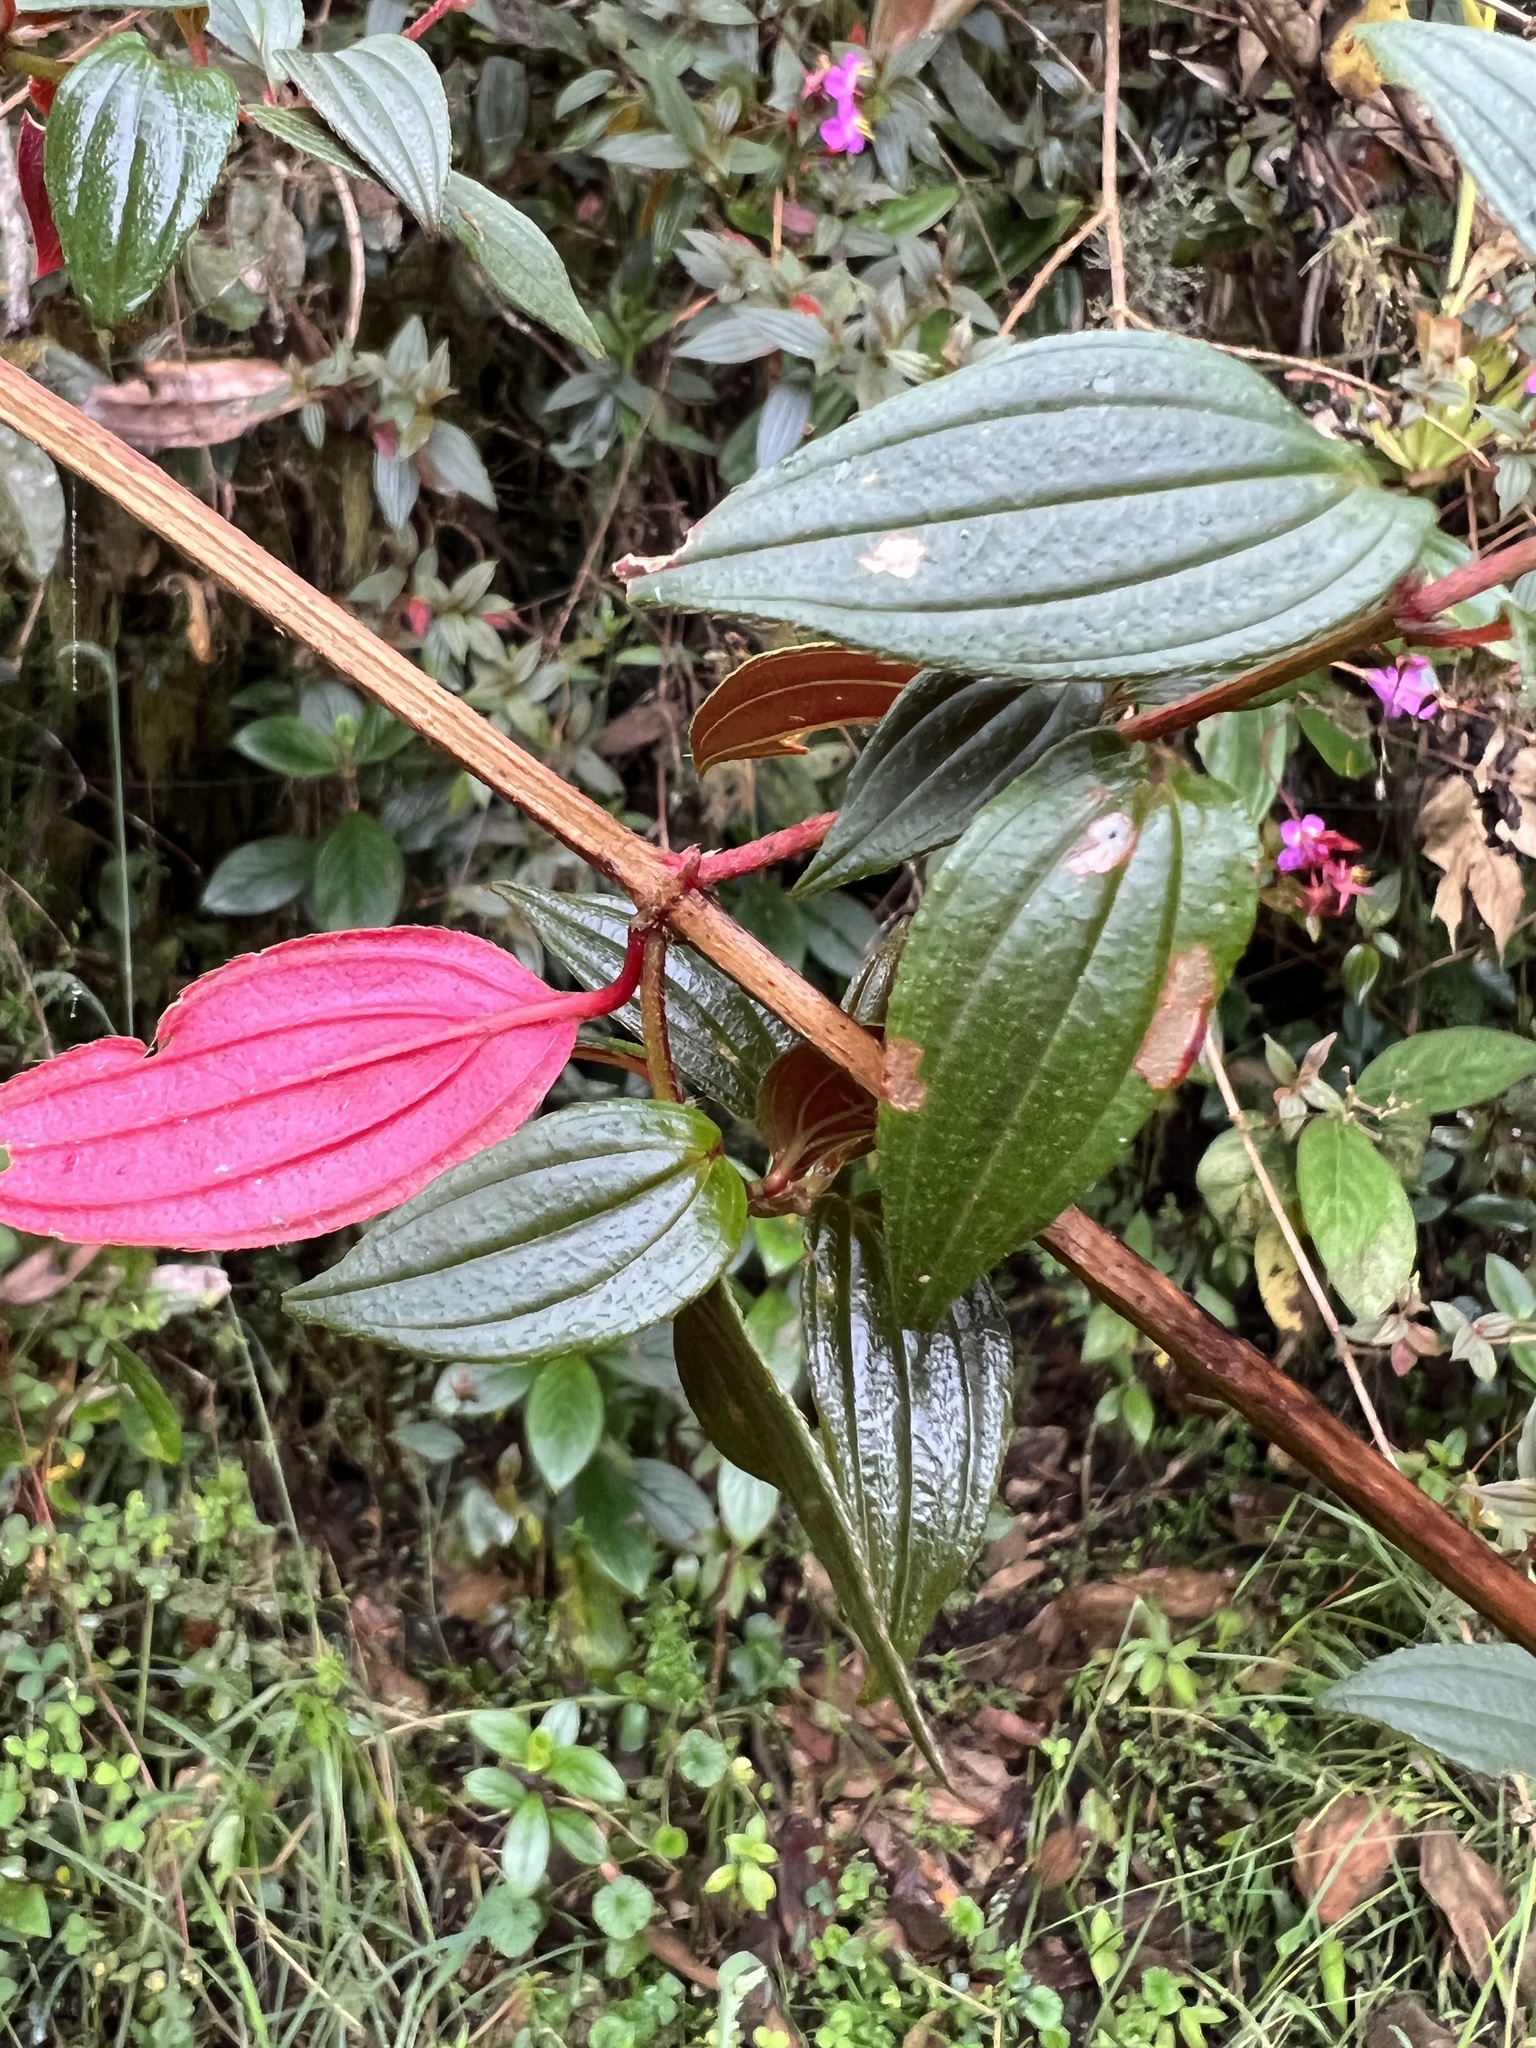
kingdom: Plantae
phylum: Tracheophyta
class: Magnoliopsida
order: Myrtales
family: Melastomataceae
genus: Monochaetum
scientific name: Monochaetum meridense
